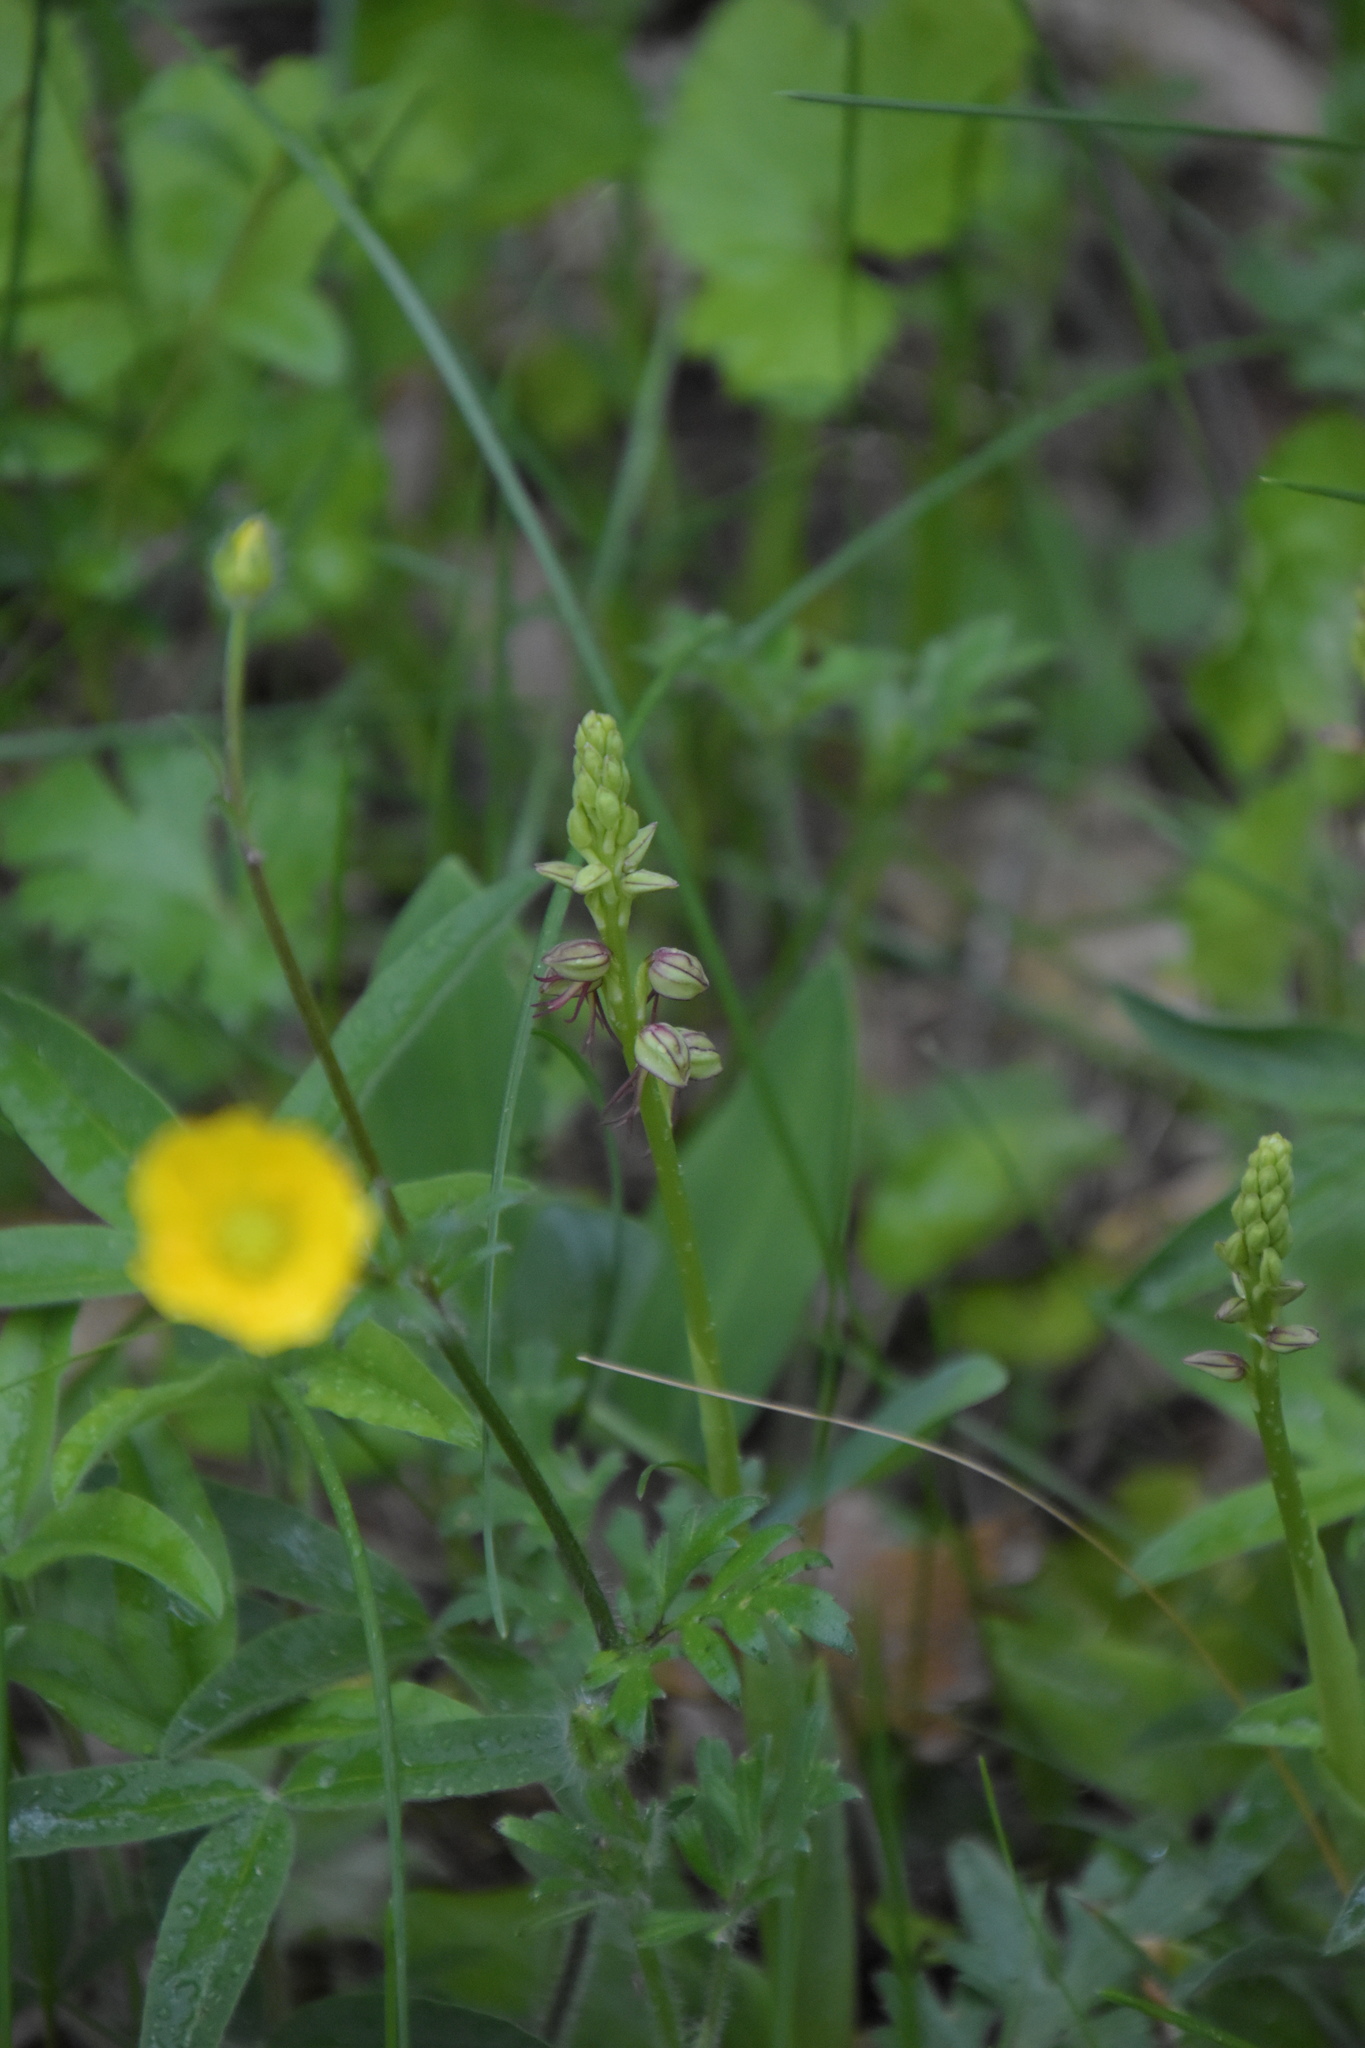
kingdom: Plantae
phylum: Tracheophyta
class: Liliopsida
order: Asparagales
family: Orchidaceae
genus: Orchis
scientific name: Orchis anthropophora
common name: Man orchid
